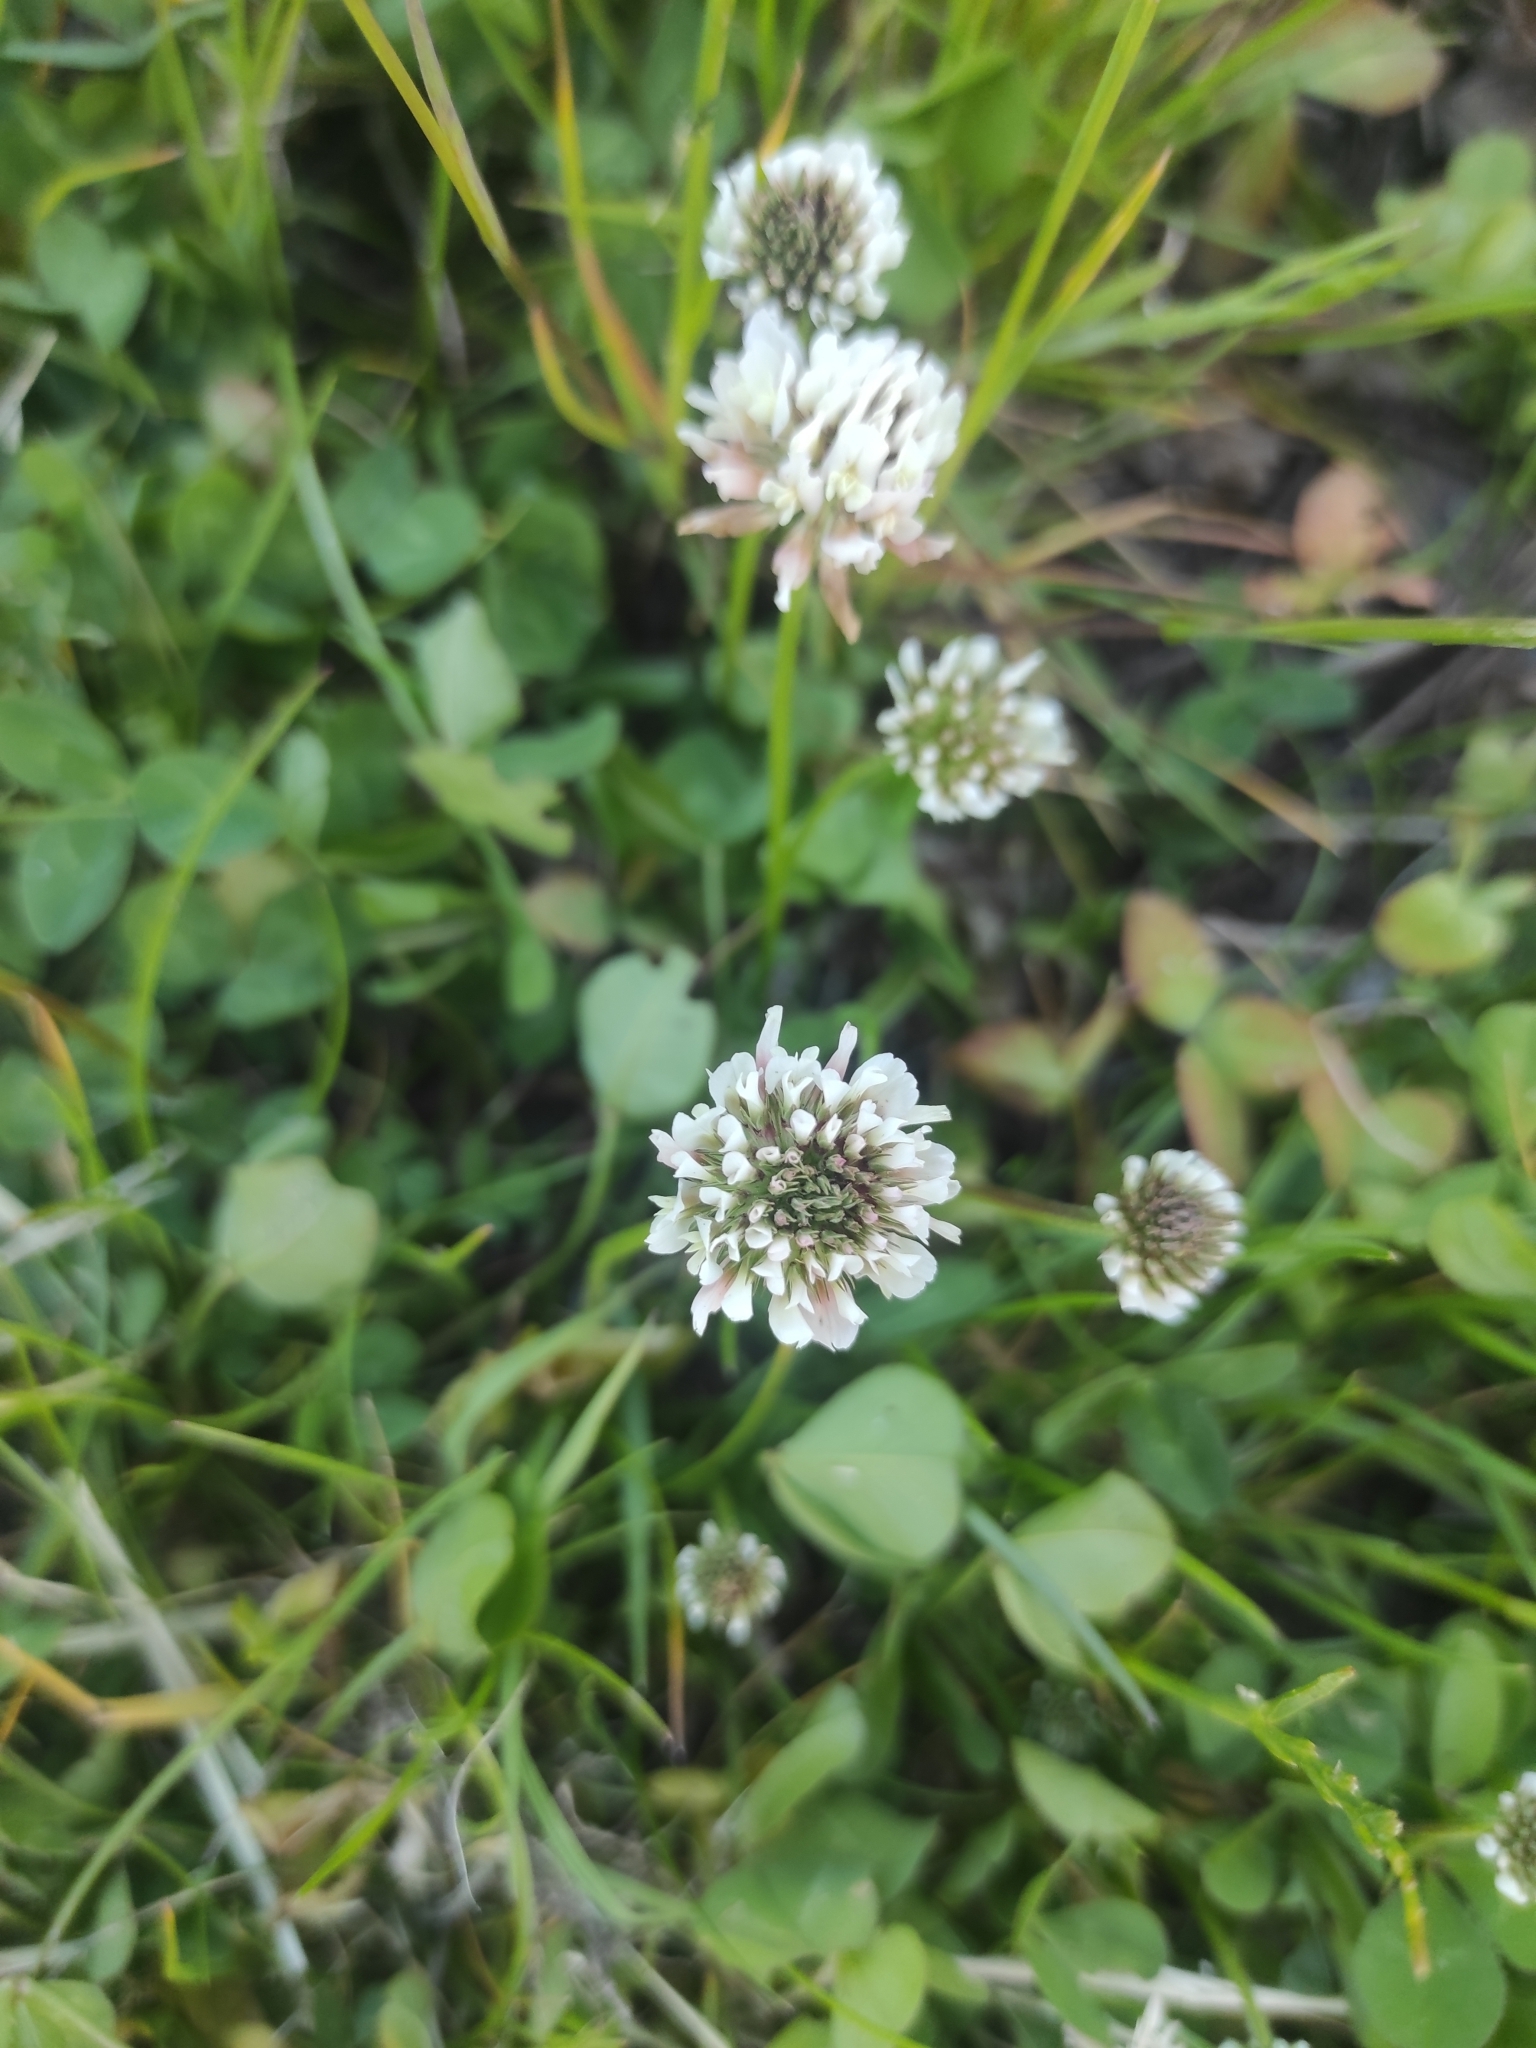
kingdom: Plantae
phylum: Tracheophyta
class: Magnoliopsida
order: Fabales
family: Fabaceae
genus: Trifolium
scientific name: Trifolium repens
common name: White clover
